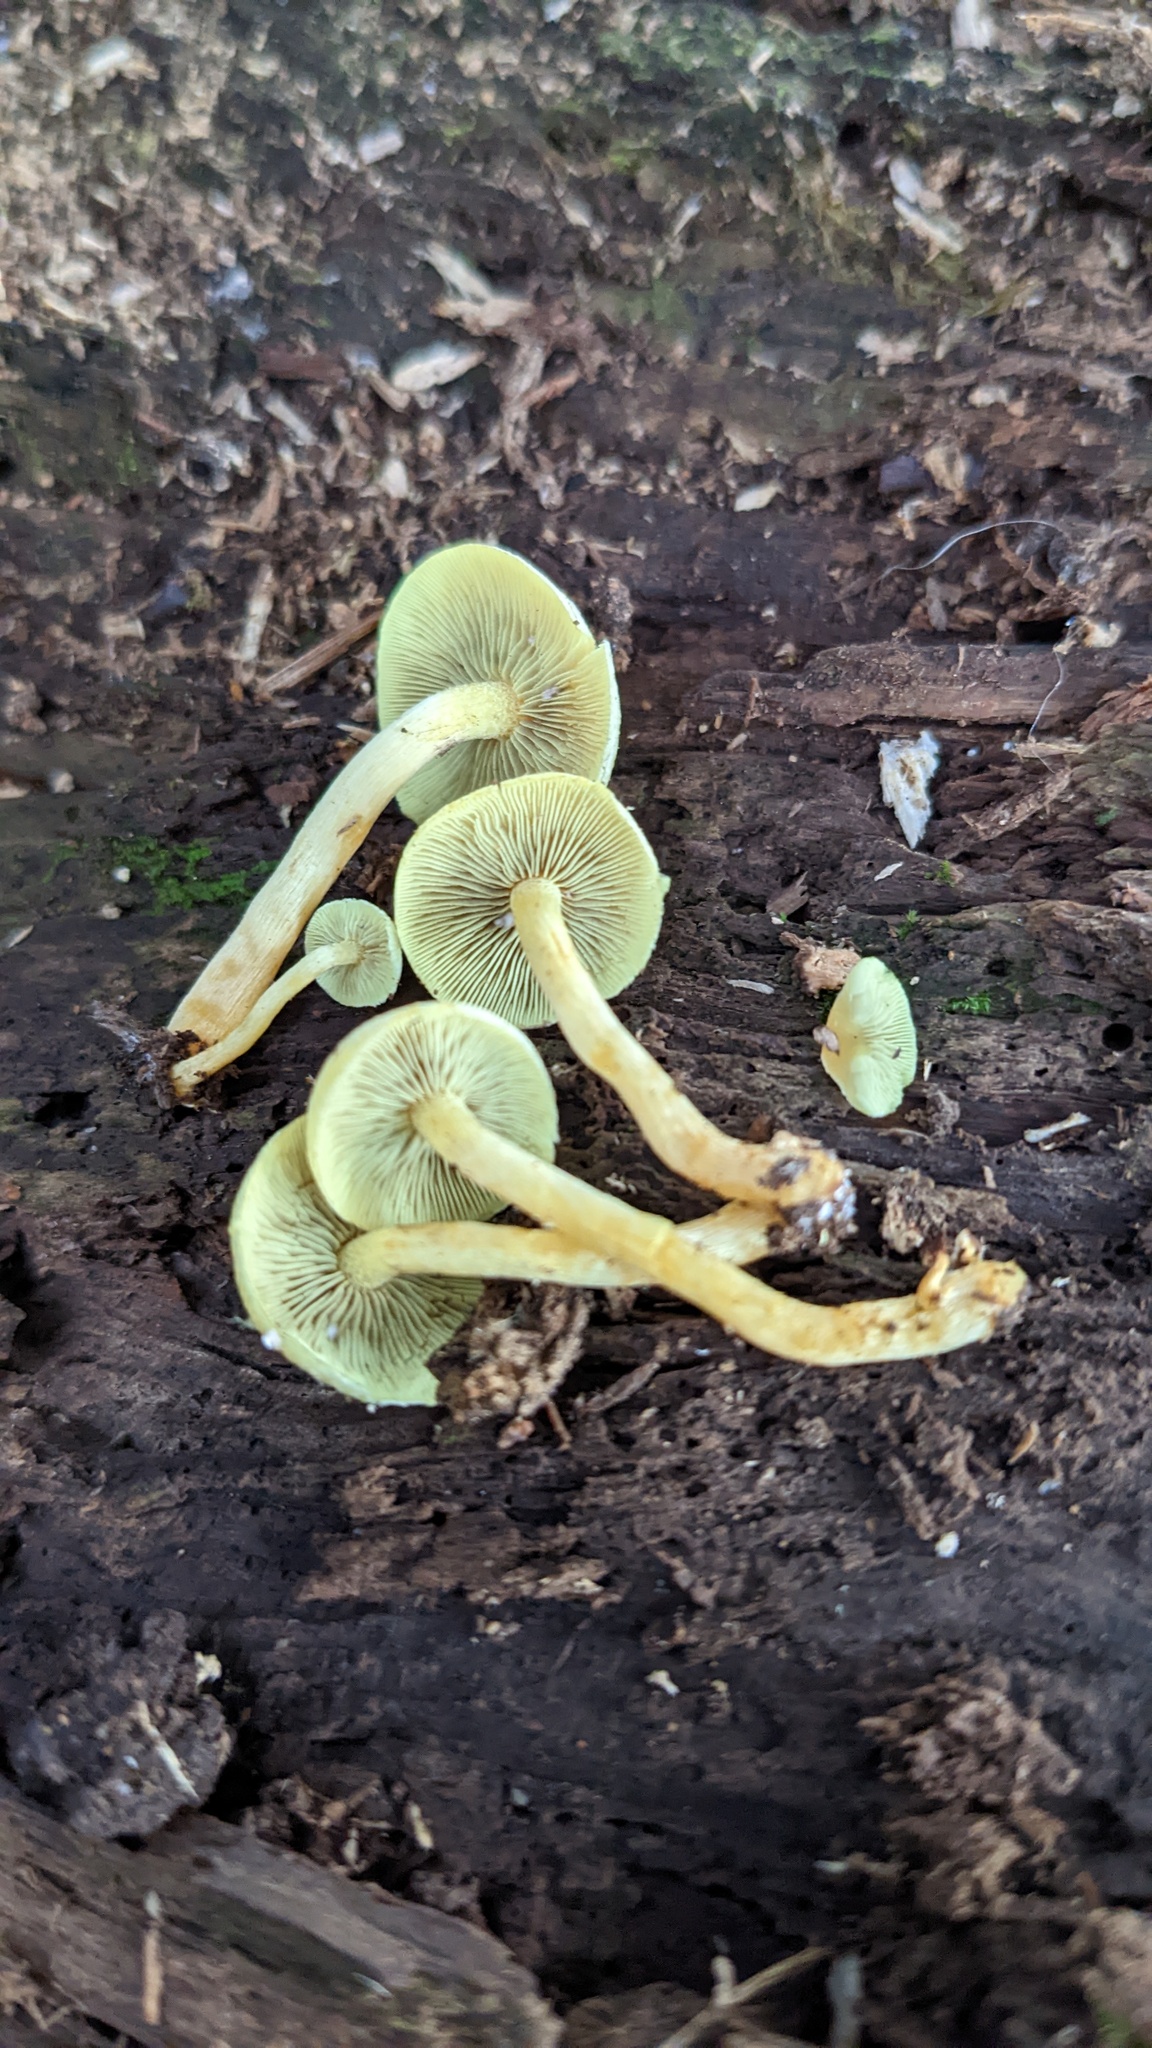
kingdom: Fungi
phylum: Basidiomycota
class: Agaricomycetes
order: Agaricales
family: Strophariaceae
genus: Hypholoma
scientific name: Hypholoma fasciculare
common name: Sulphur tuft
